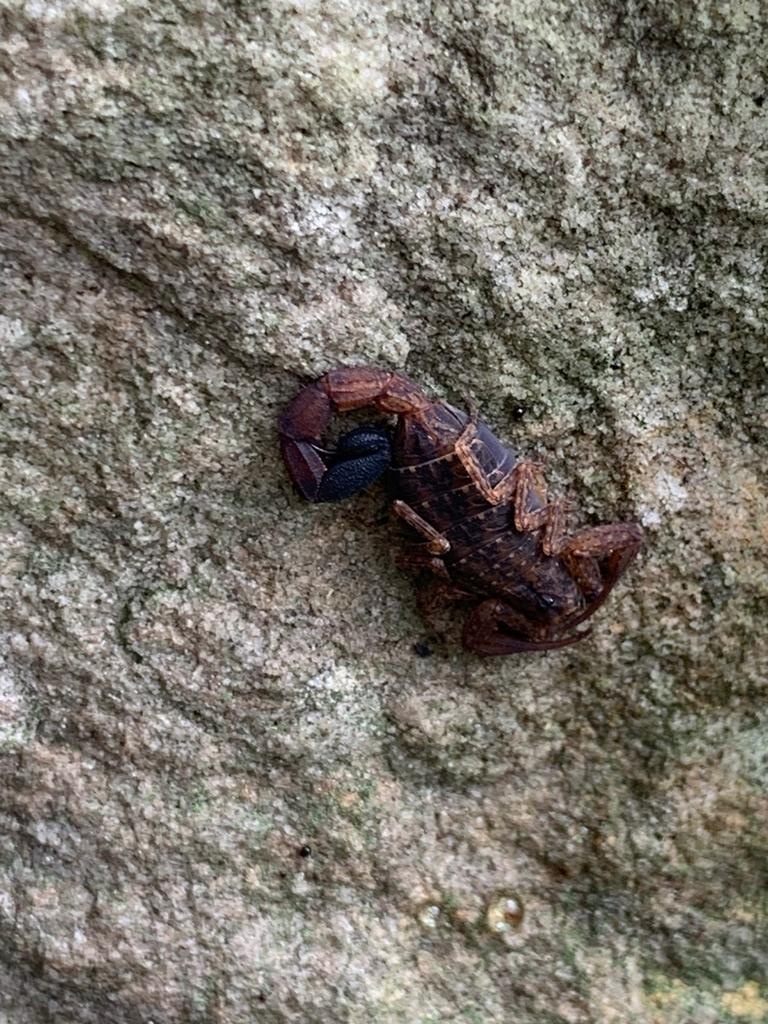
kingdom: Animalia
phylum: Arthropoda
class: Arachnida
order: Scorpiones
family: Buthidae
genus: Tityus
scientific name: Tityus columbianus
